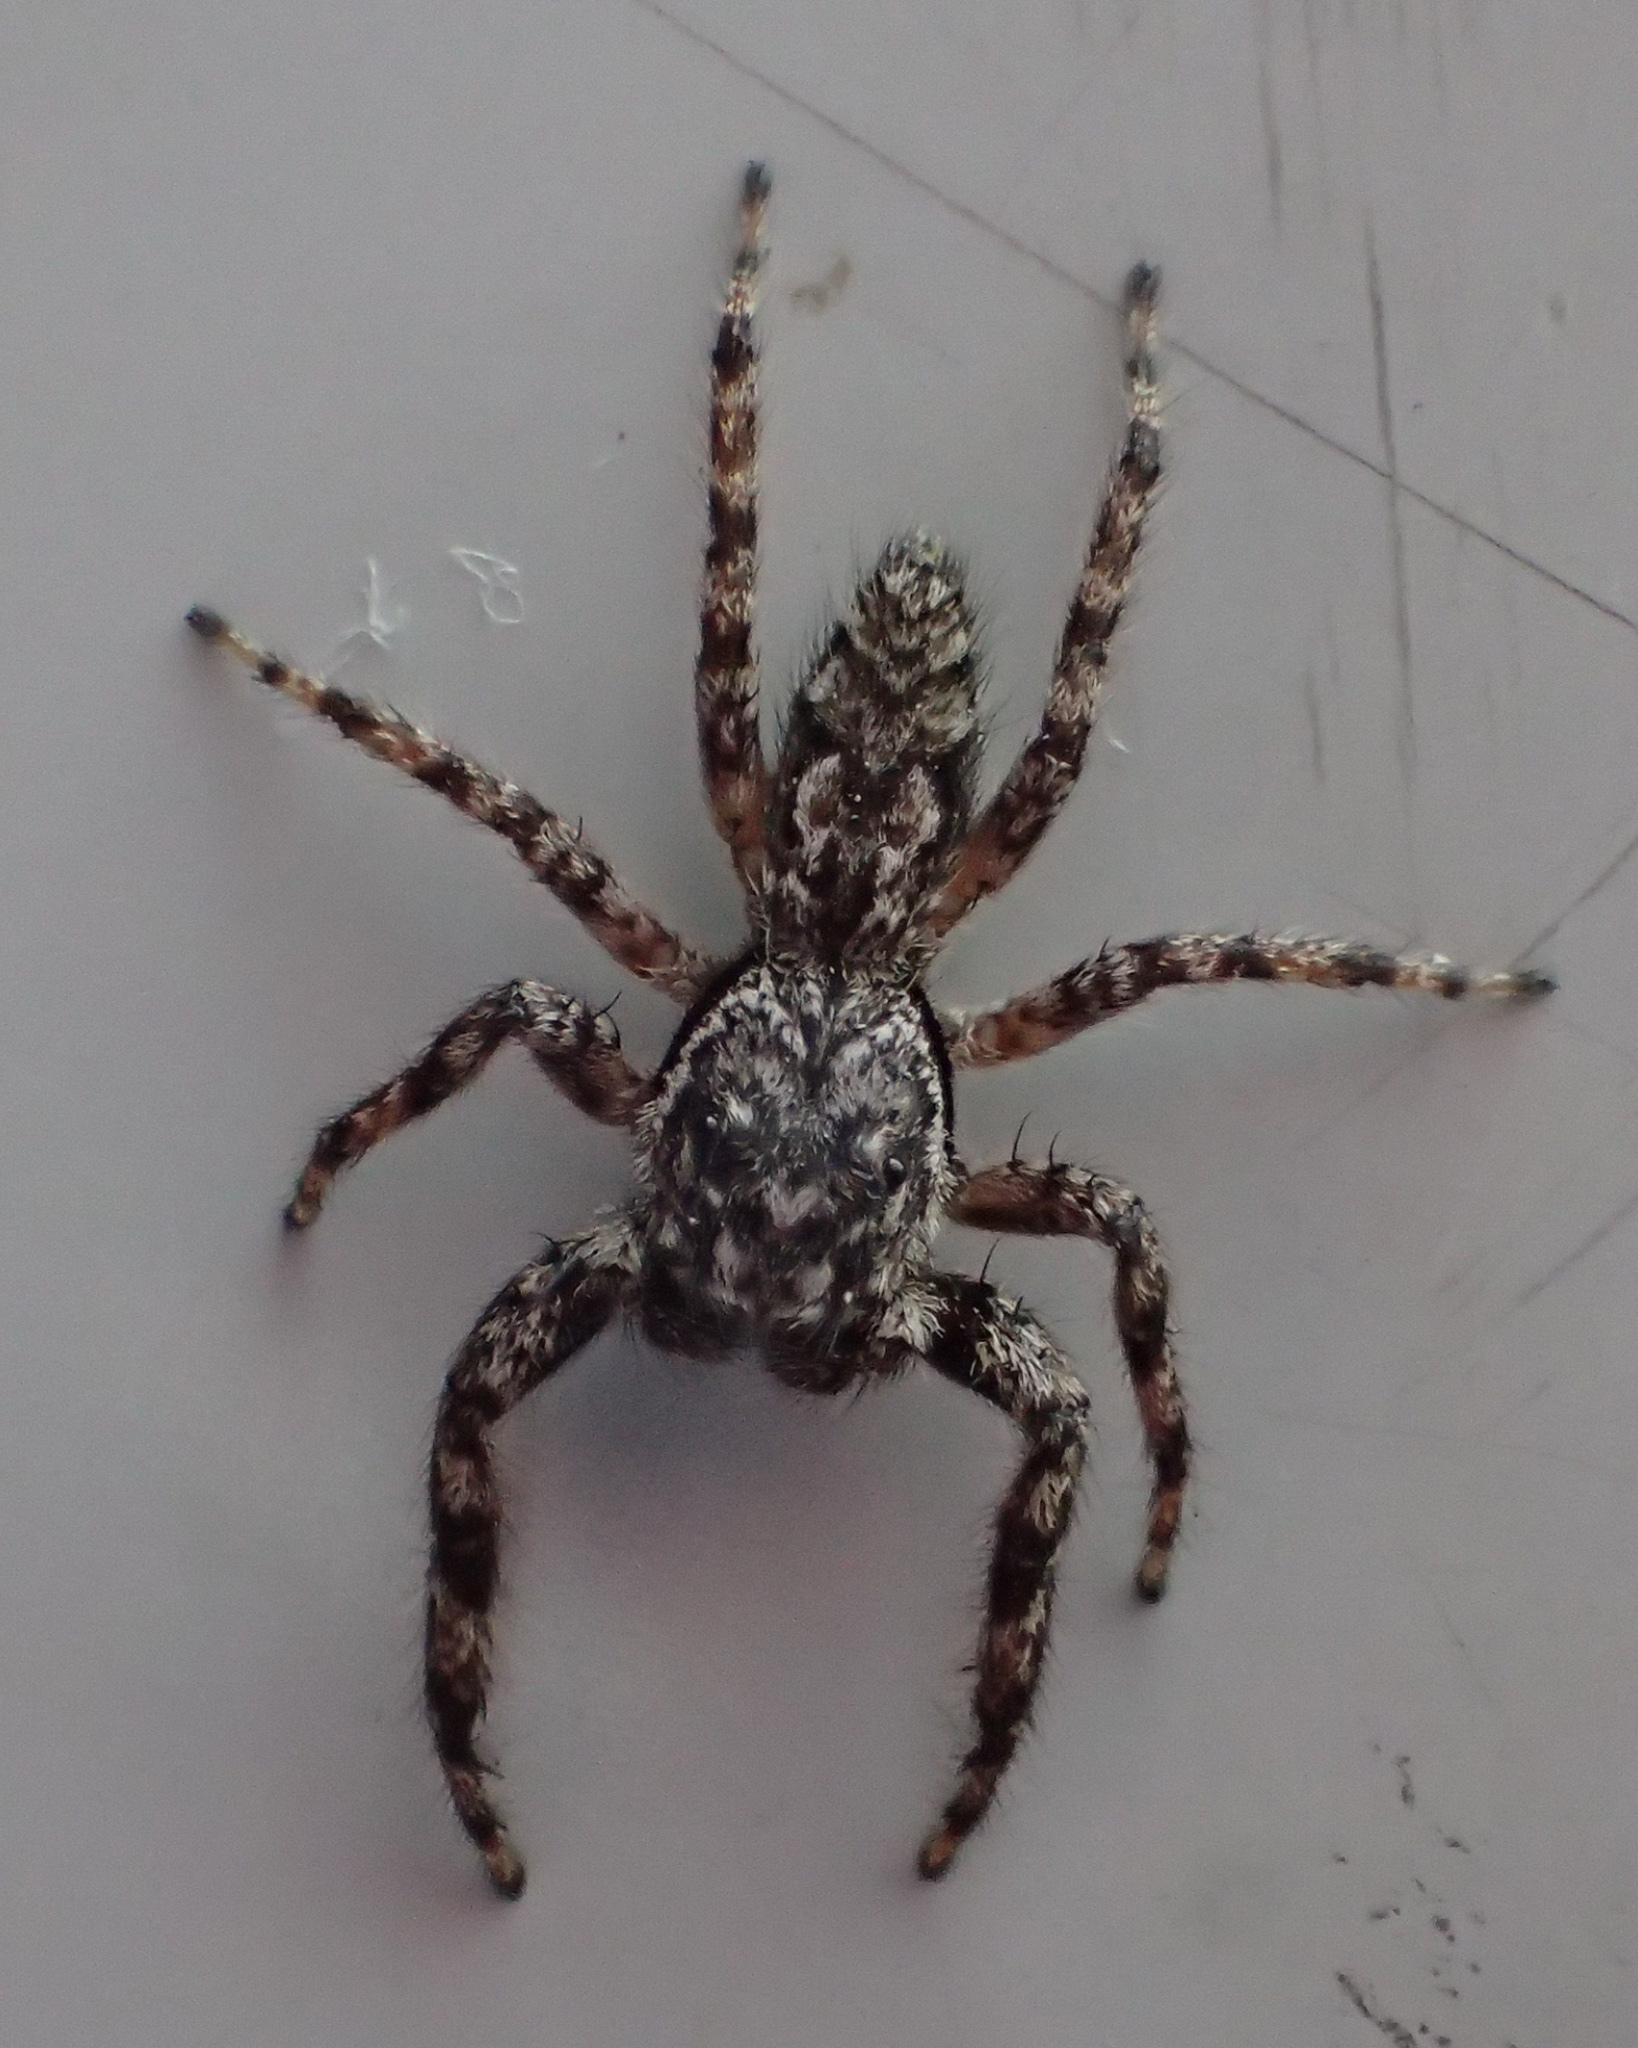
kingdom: Animalia
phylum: Arthropoda
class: Arachnida
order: Araneae
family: Salticidae
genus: Platycryptus
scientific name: Platycryptus undatus
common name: Tan jumping spider
